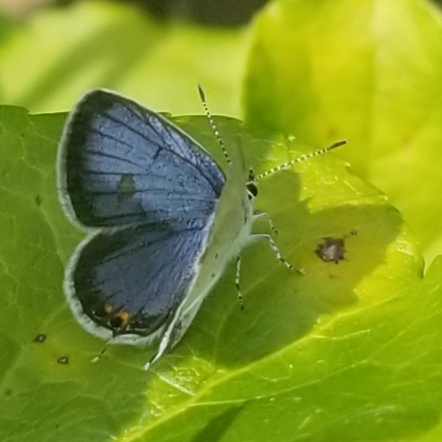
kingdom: Animalia
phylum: Arthropoda
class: Insecta
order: Lepidoptera
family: Lycaenidae
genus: Elkalyce
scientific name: Elkalyce comyntas
